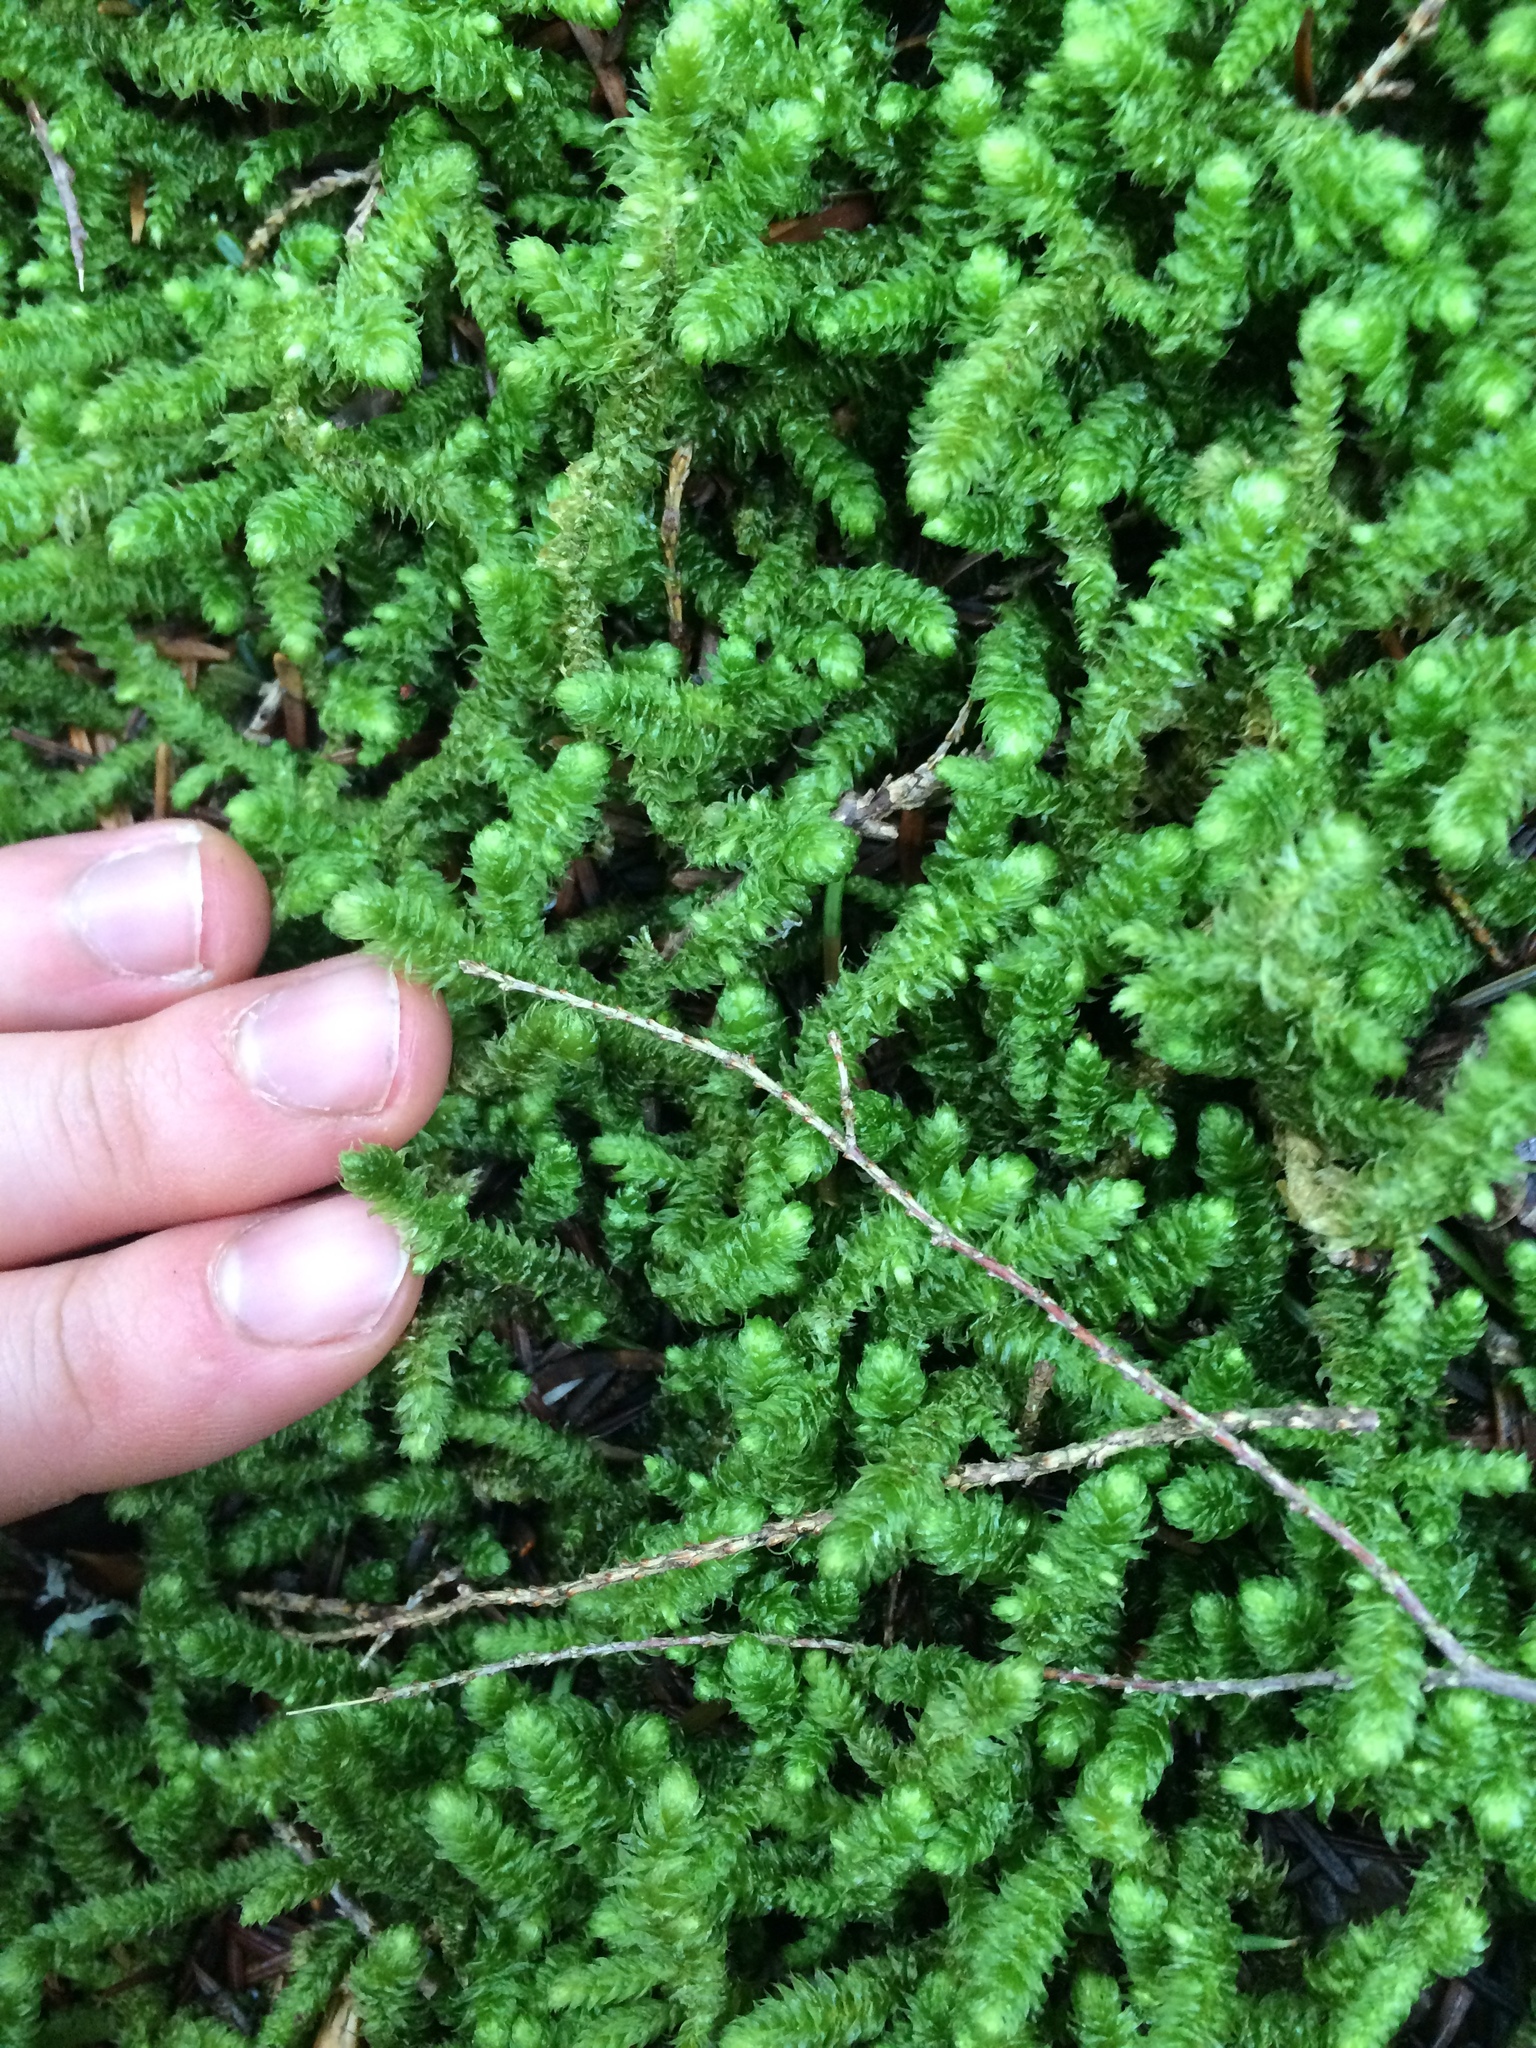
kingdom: Plantae
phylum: Bryophyta
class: Bryopsida
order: Hypnales
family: Hylocomiaceae
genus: Rhytidiopsis
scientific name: Rhytidiopsis robusta
